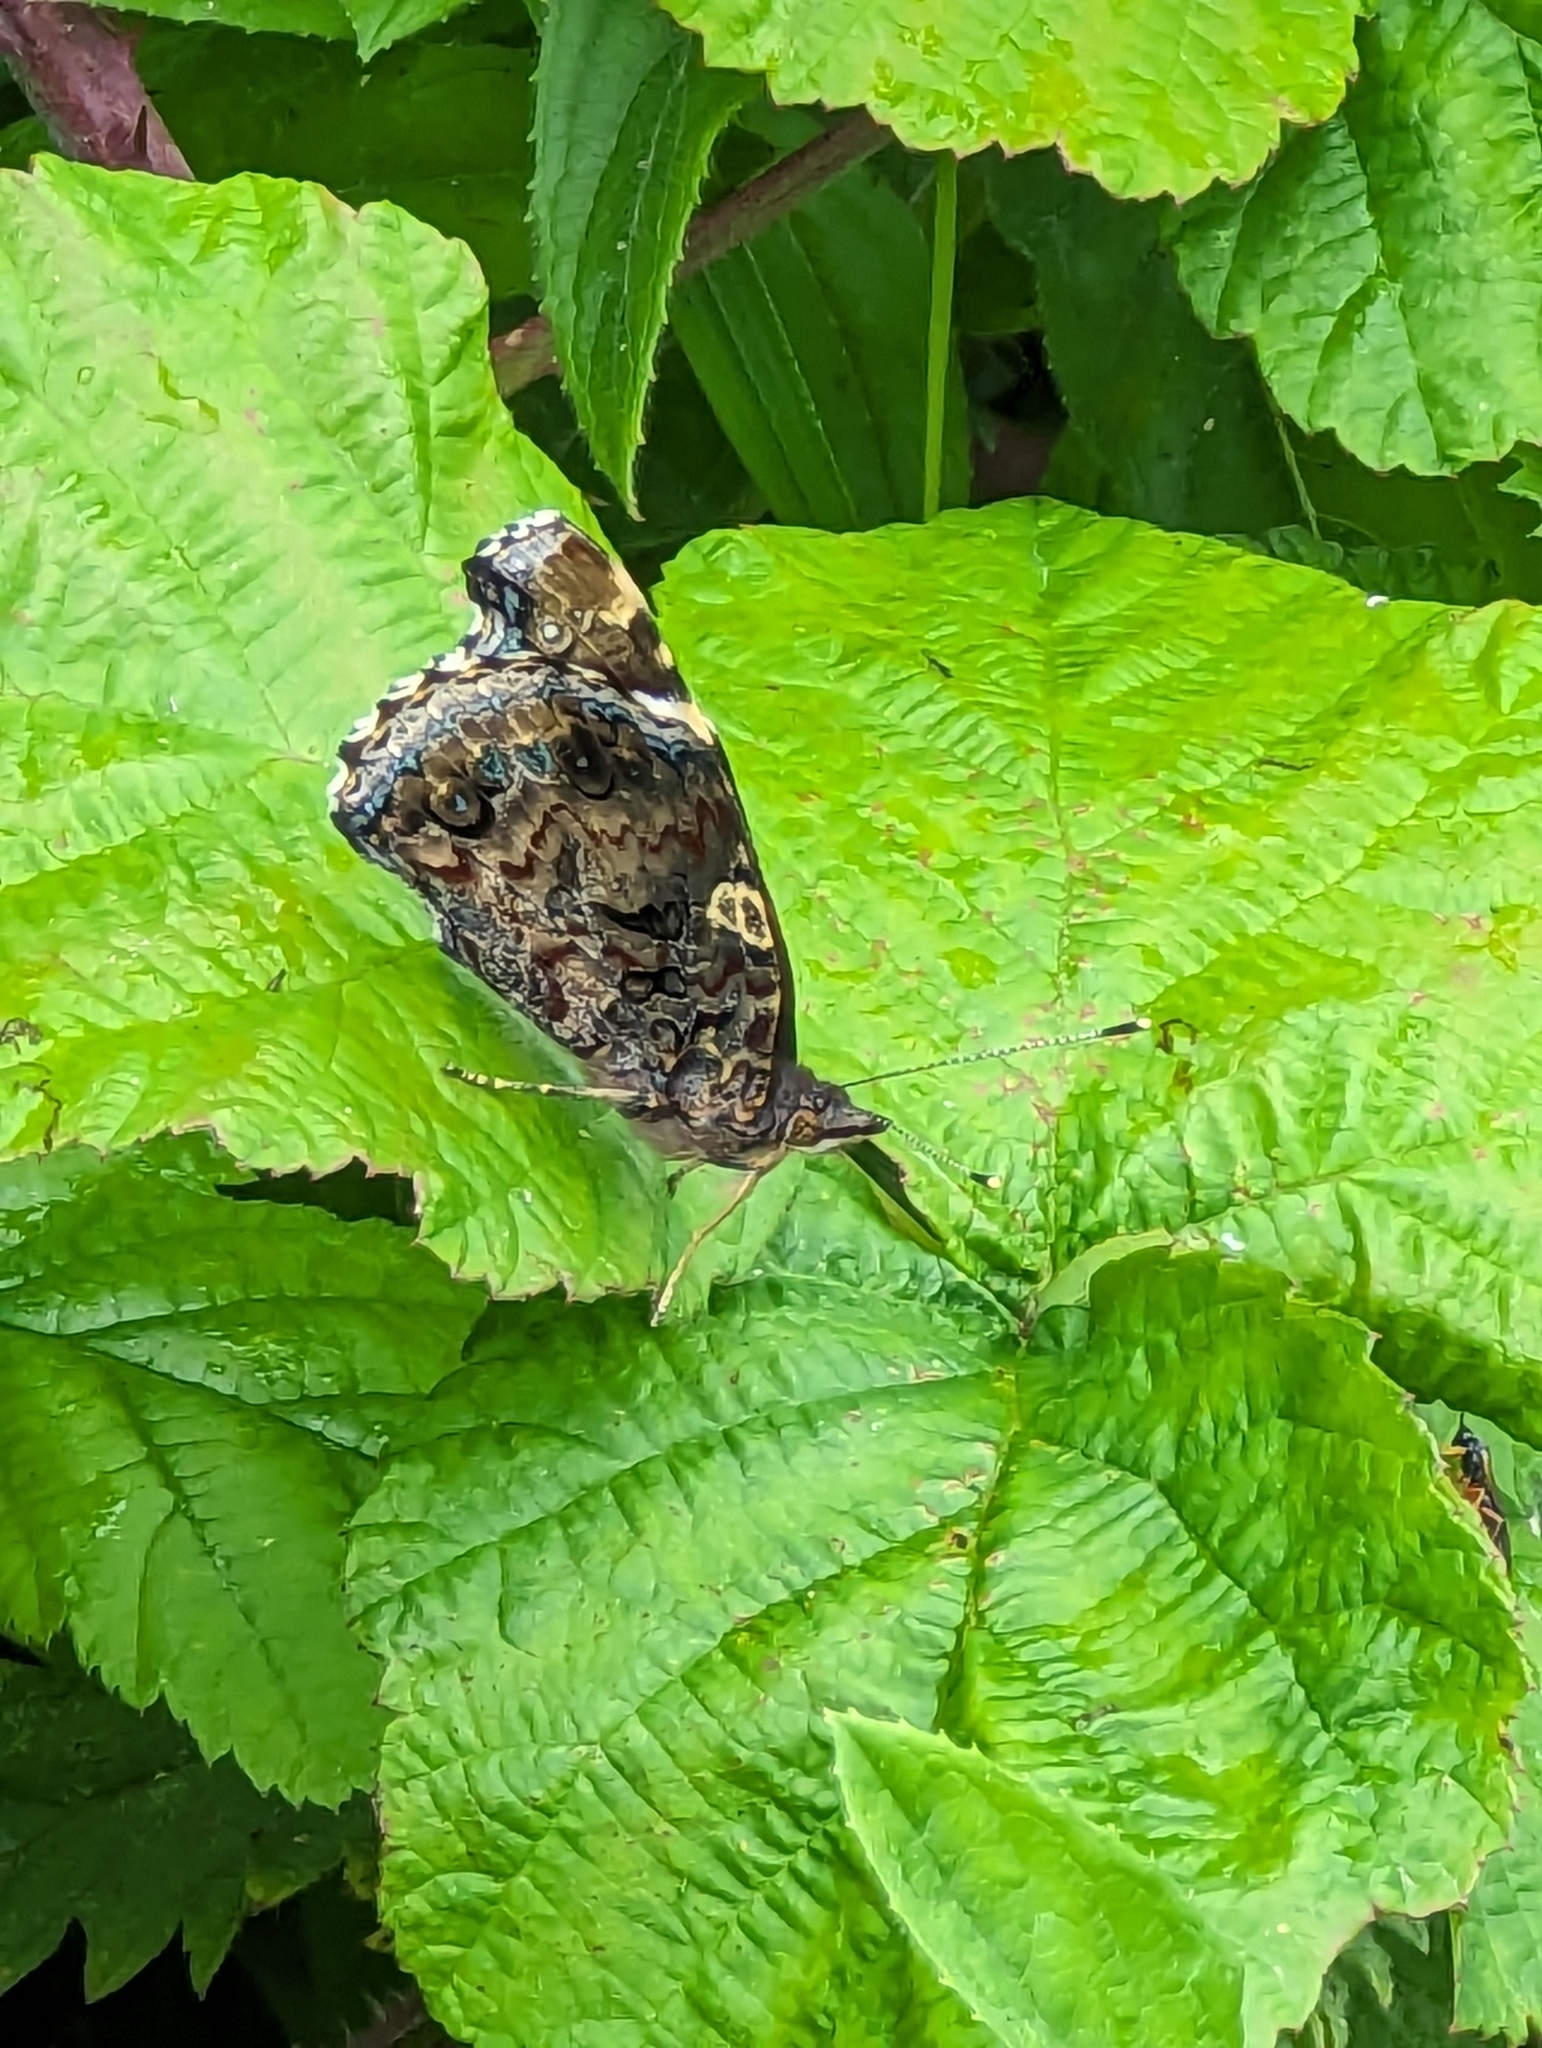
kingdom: Animalia
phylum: Arthropoda
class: Insecta
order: Lepidoptera
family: Nymphalidae
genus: Vanessa
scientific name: Vanessa atalanta
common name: Red admiral
